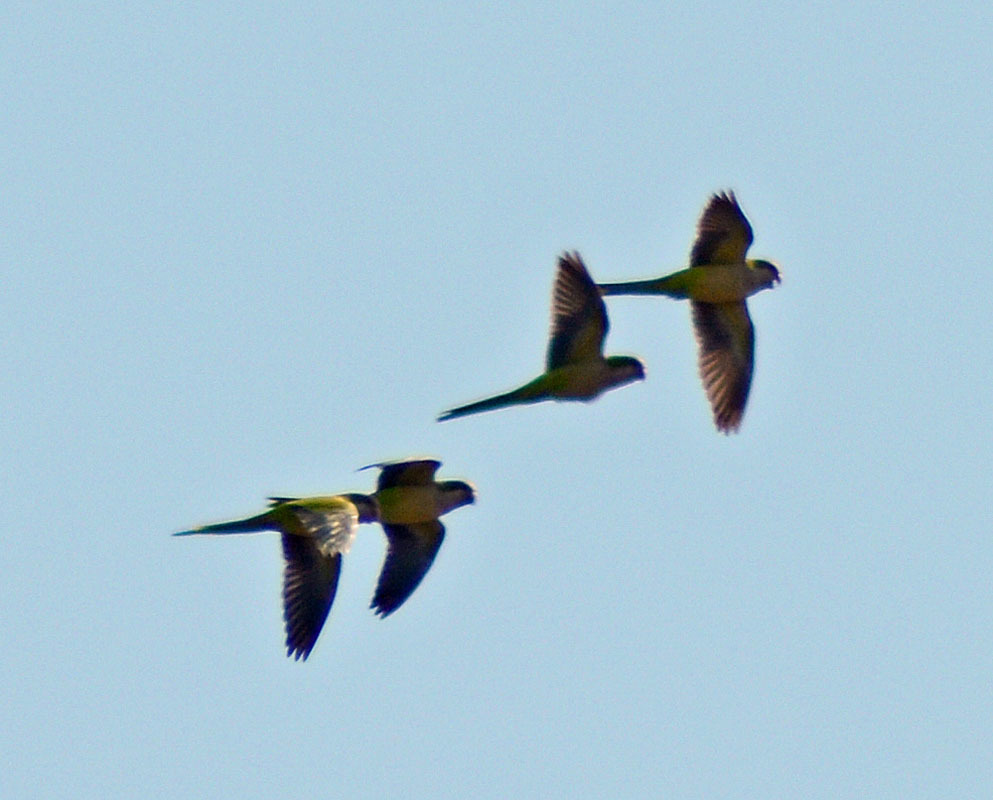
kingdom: Animalia
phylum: Chordata
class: Aves
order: Psittaciformes
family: Psittacidae
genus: Myiopsitta
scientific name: Myiopsitta monachus
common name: Monk parakeet
